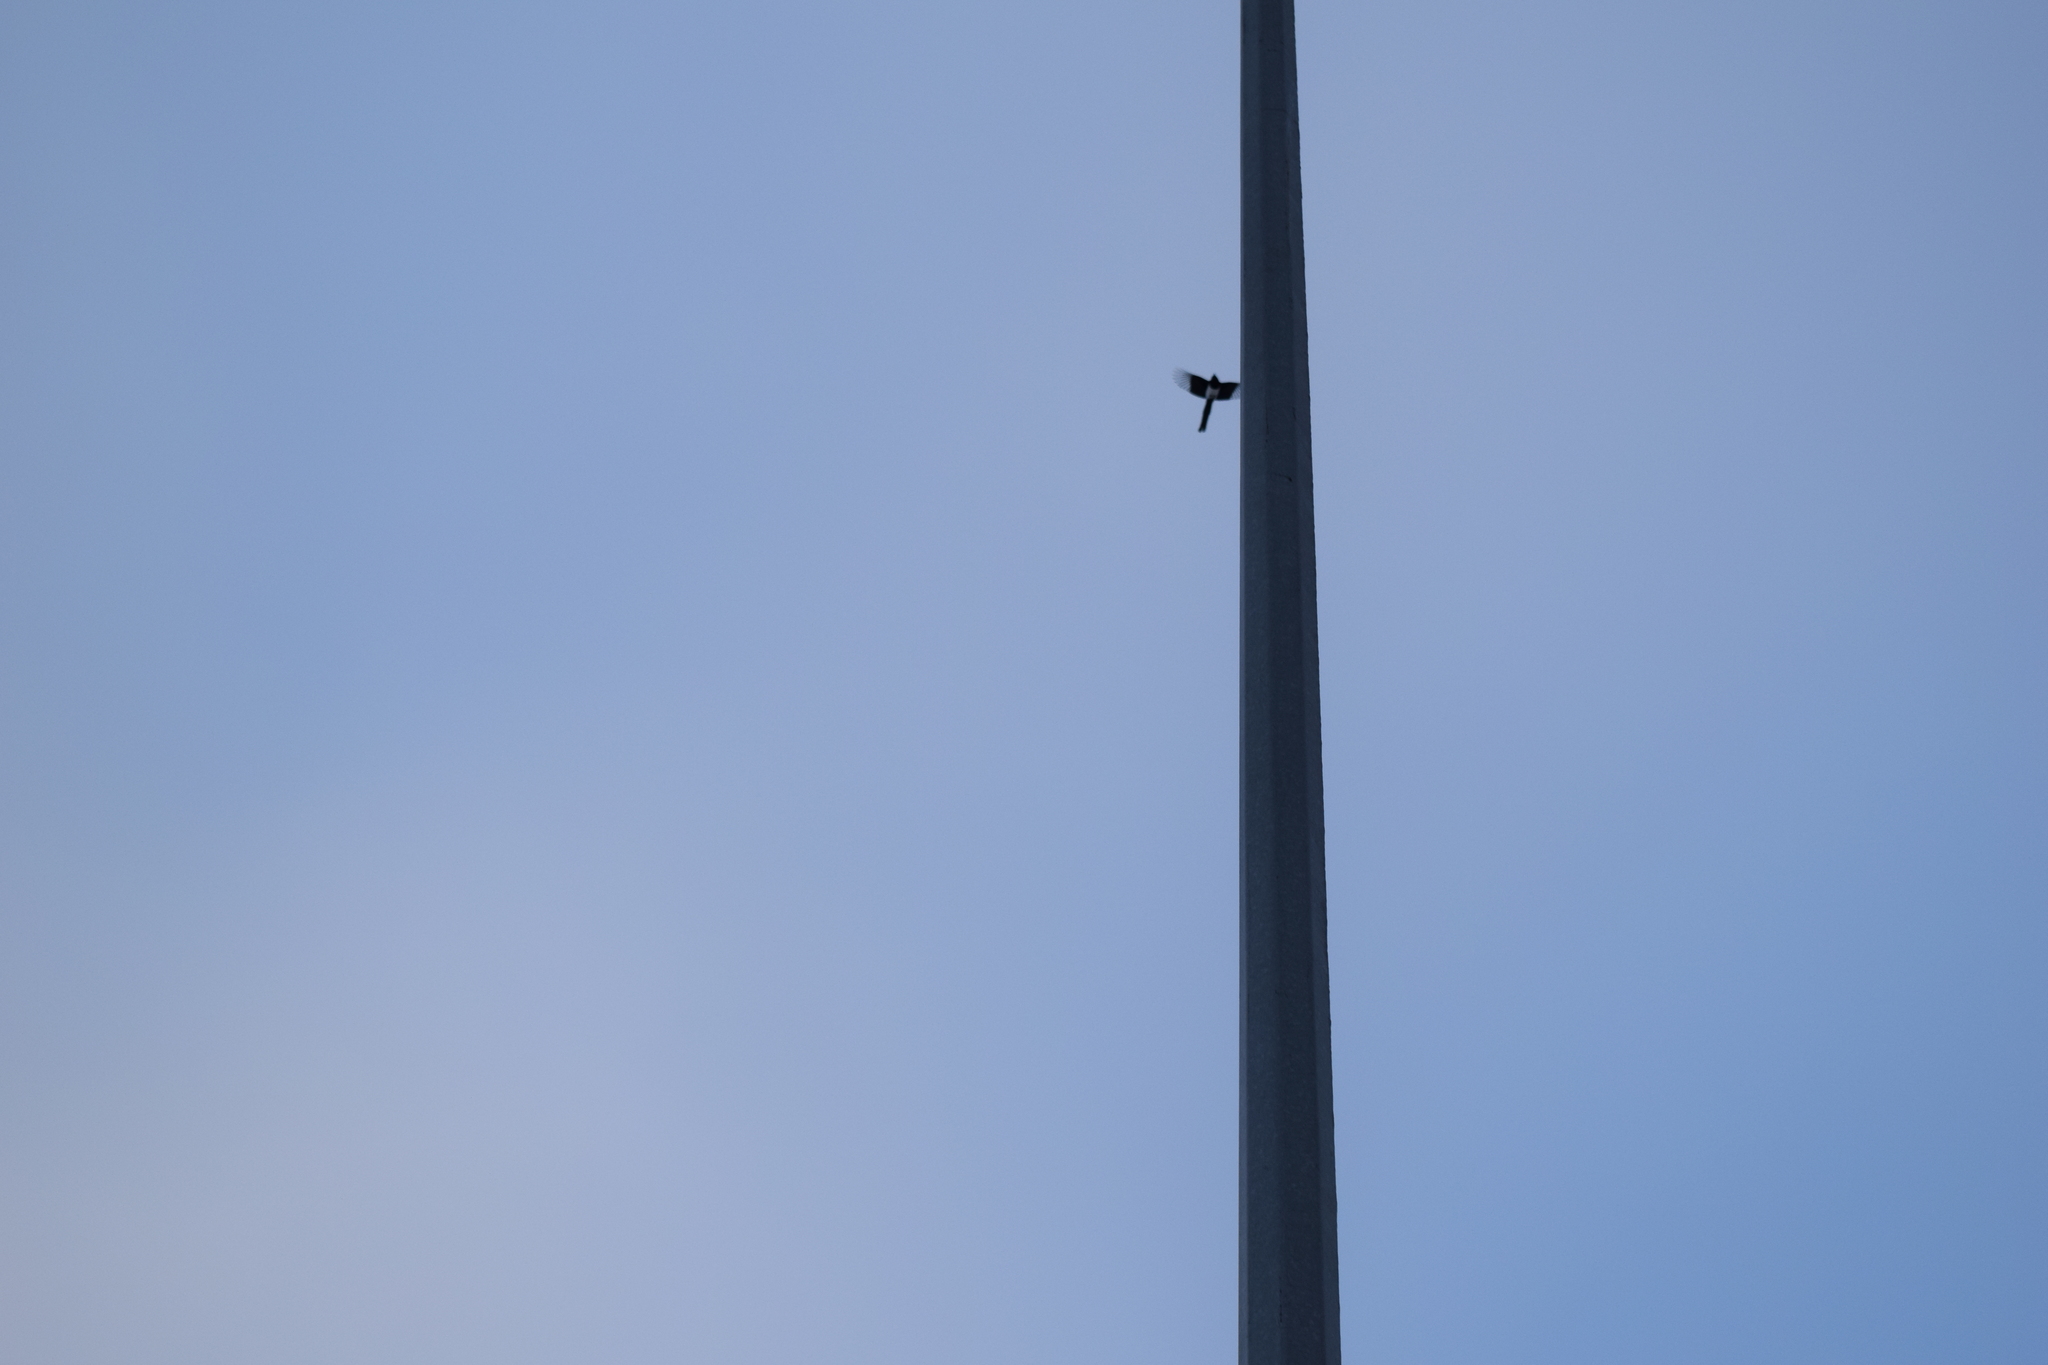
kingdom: Animalia
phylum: Chordata
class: Aves
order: Passeriformes
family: Corvidae
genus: Pica
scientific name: Pica pica
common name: Eurasian magpie
